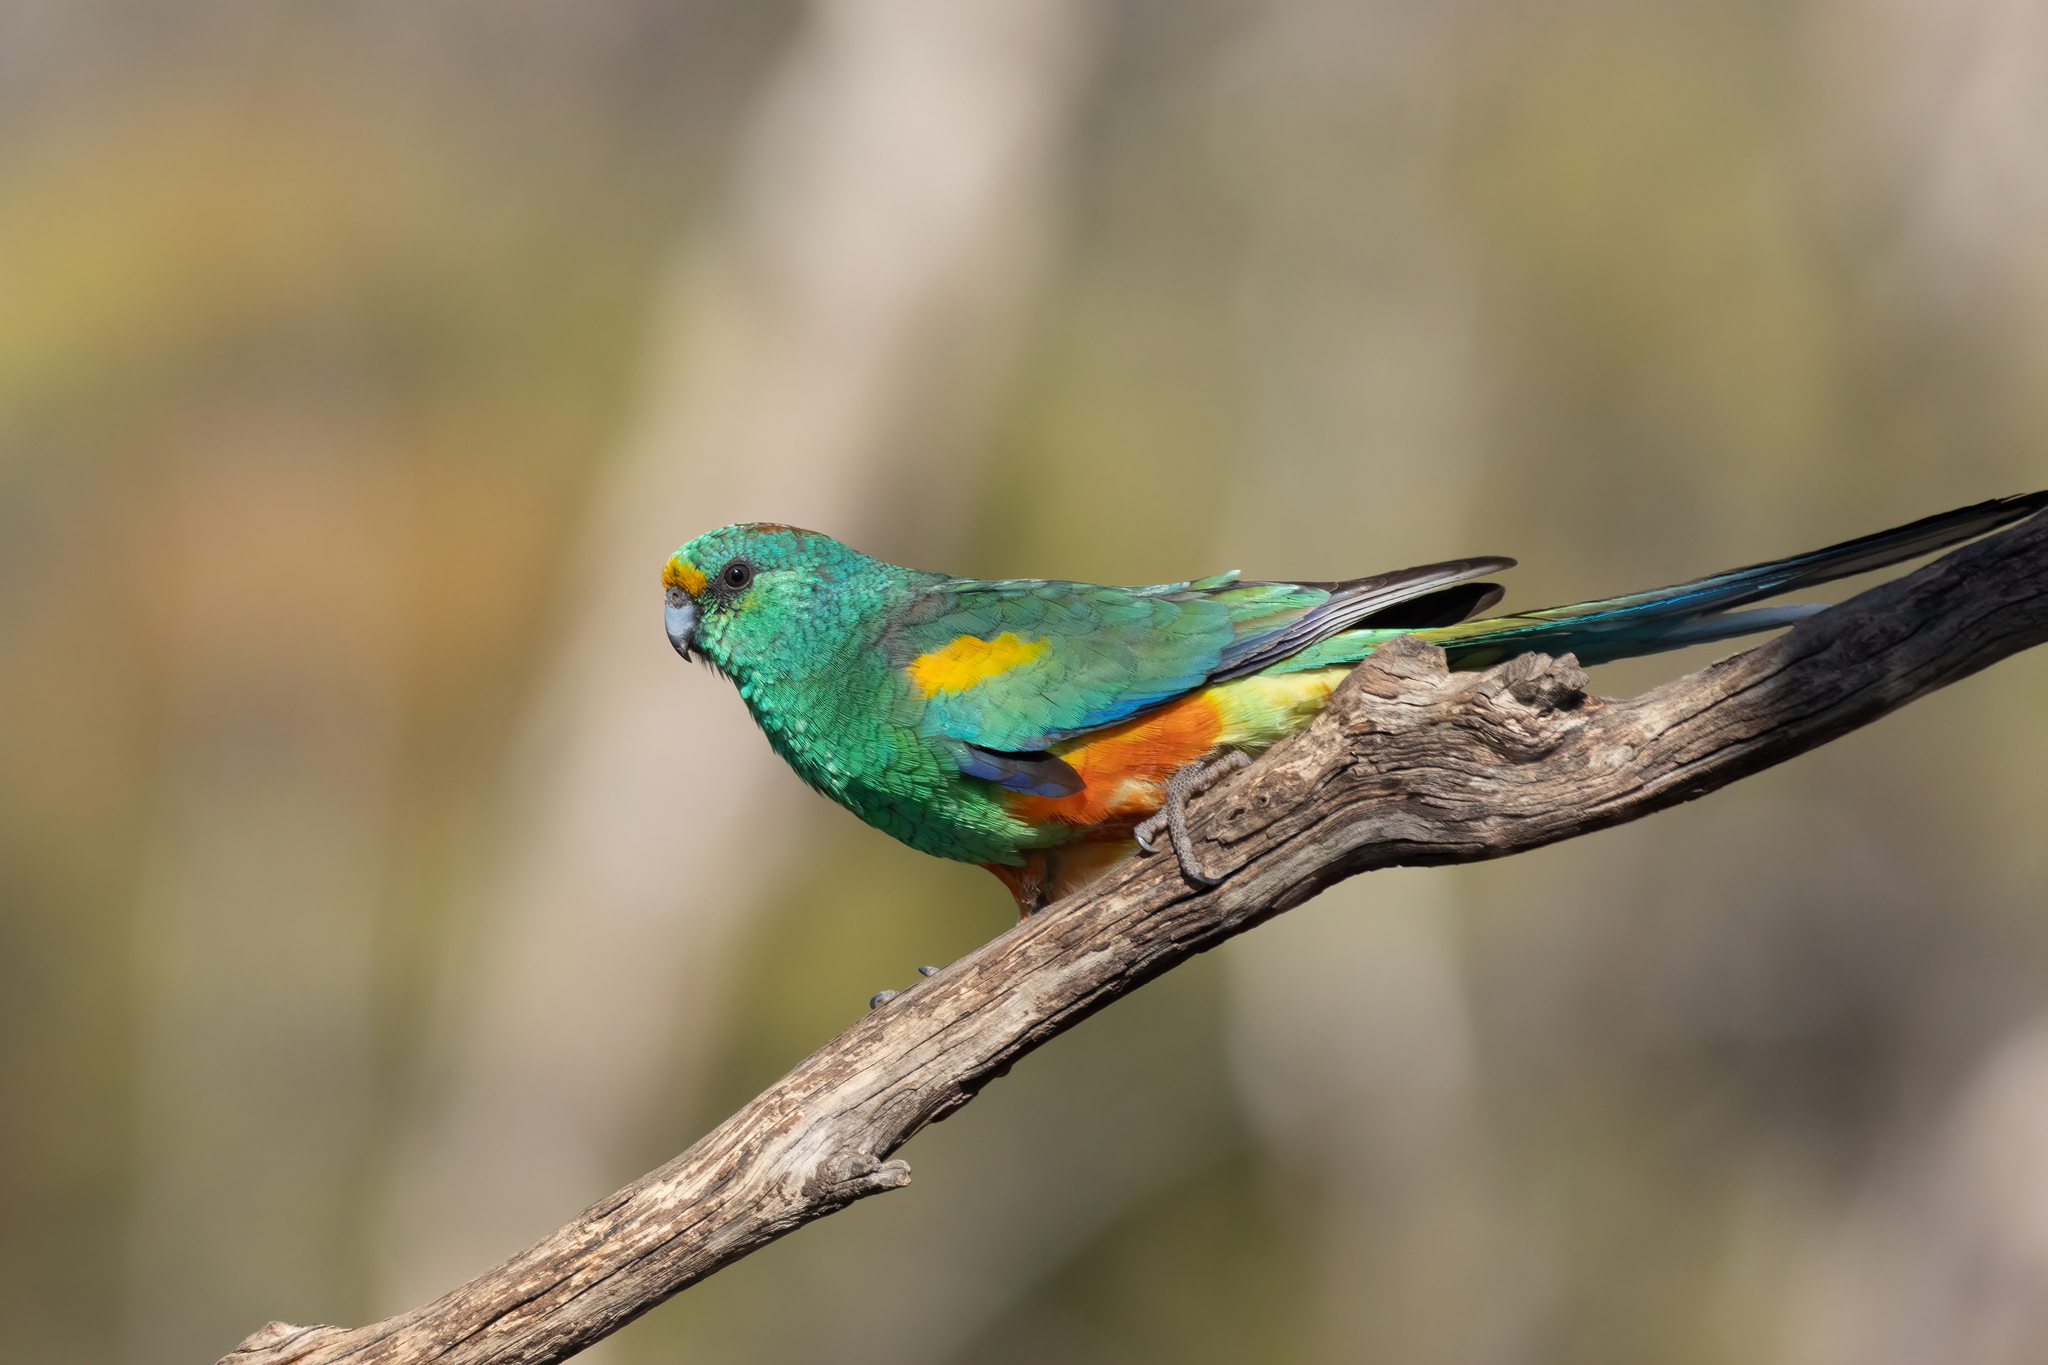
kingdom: Animalia
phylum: Chordata
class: Aves
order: Psittaciformes
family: Psittaculidae
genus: Psephotellus
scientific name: Psephotellus varius
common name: Mulga parrot
